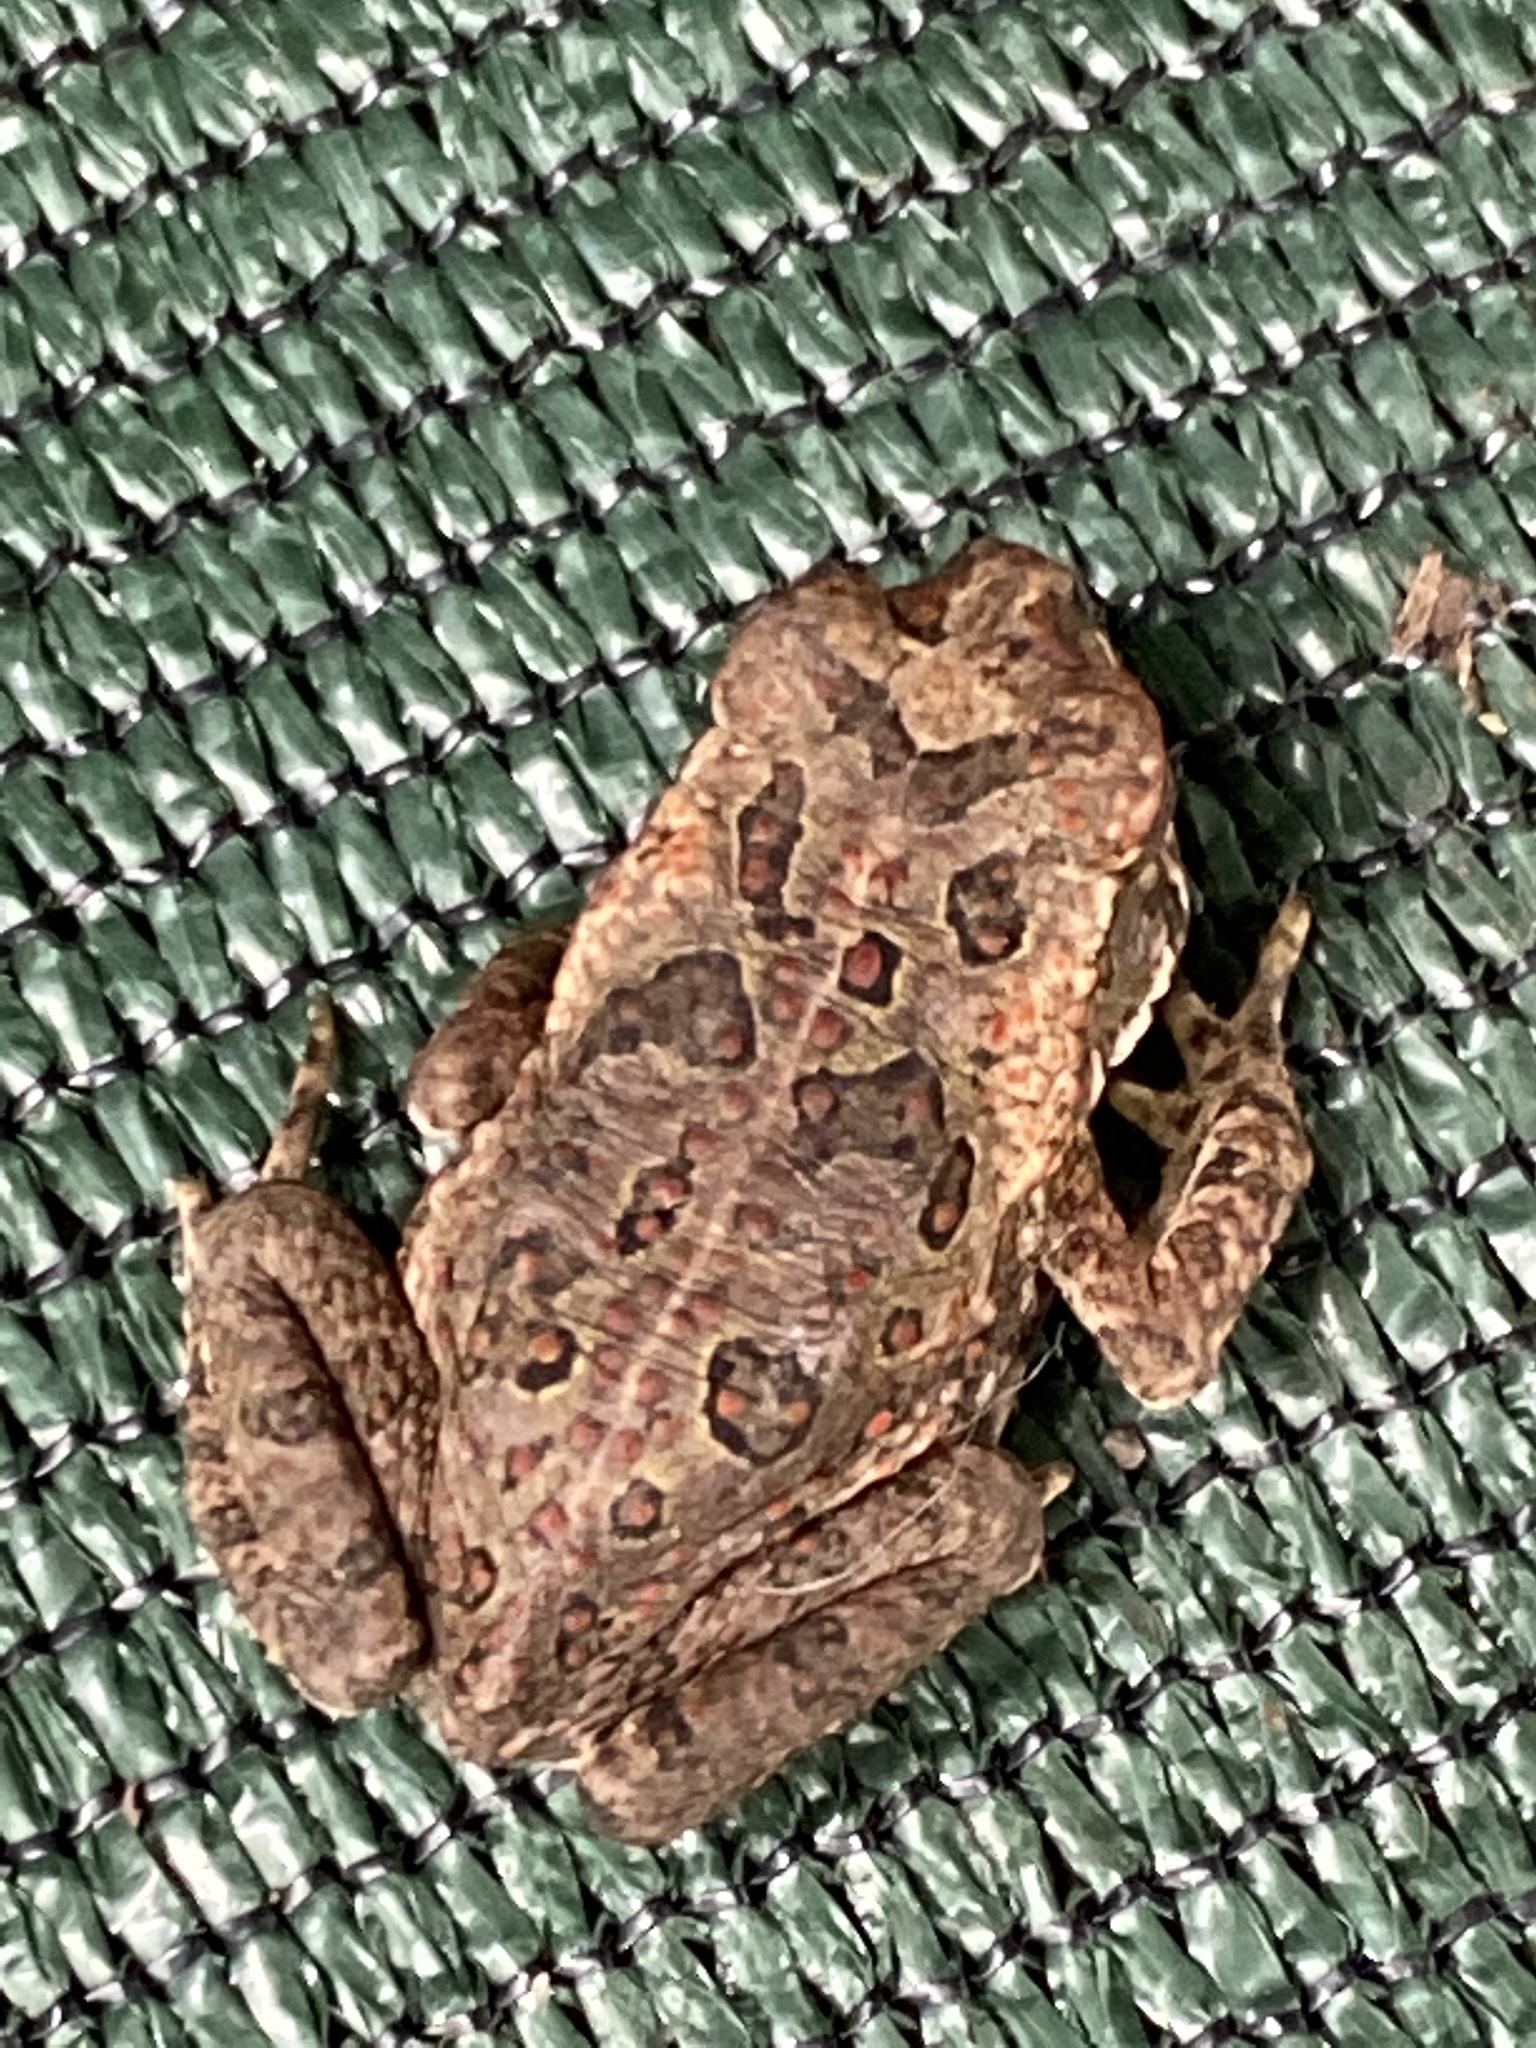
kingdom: Animalia
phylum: Chordata
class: Amphibia
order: Anura
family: Bufonidae
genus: Rhinella
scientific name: Rhinella marina
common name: Cane toad
